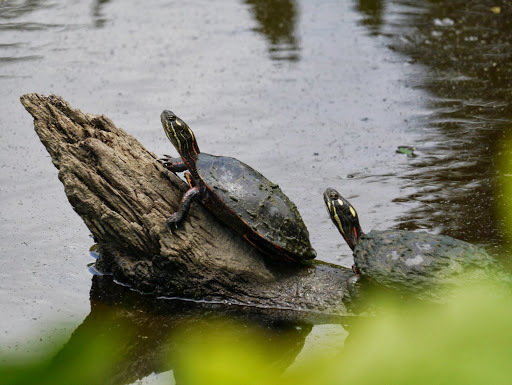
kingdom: Animalia
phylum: Chordata
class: Testudines
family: Emydidae
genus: Chrysemys
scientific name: Chrysemys picta
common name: Painted turtle
